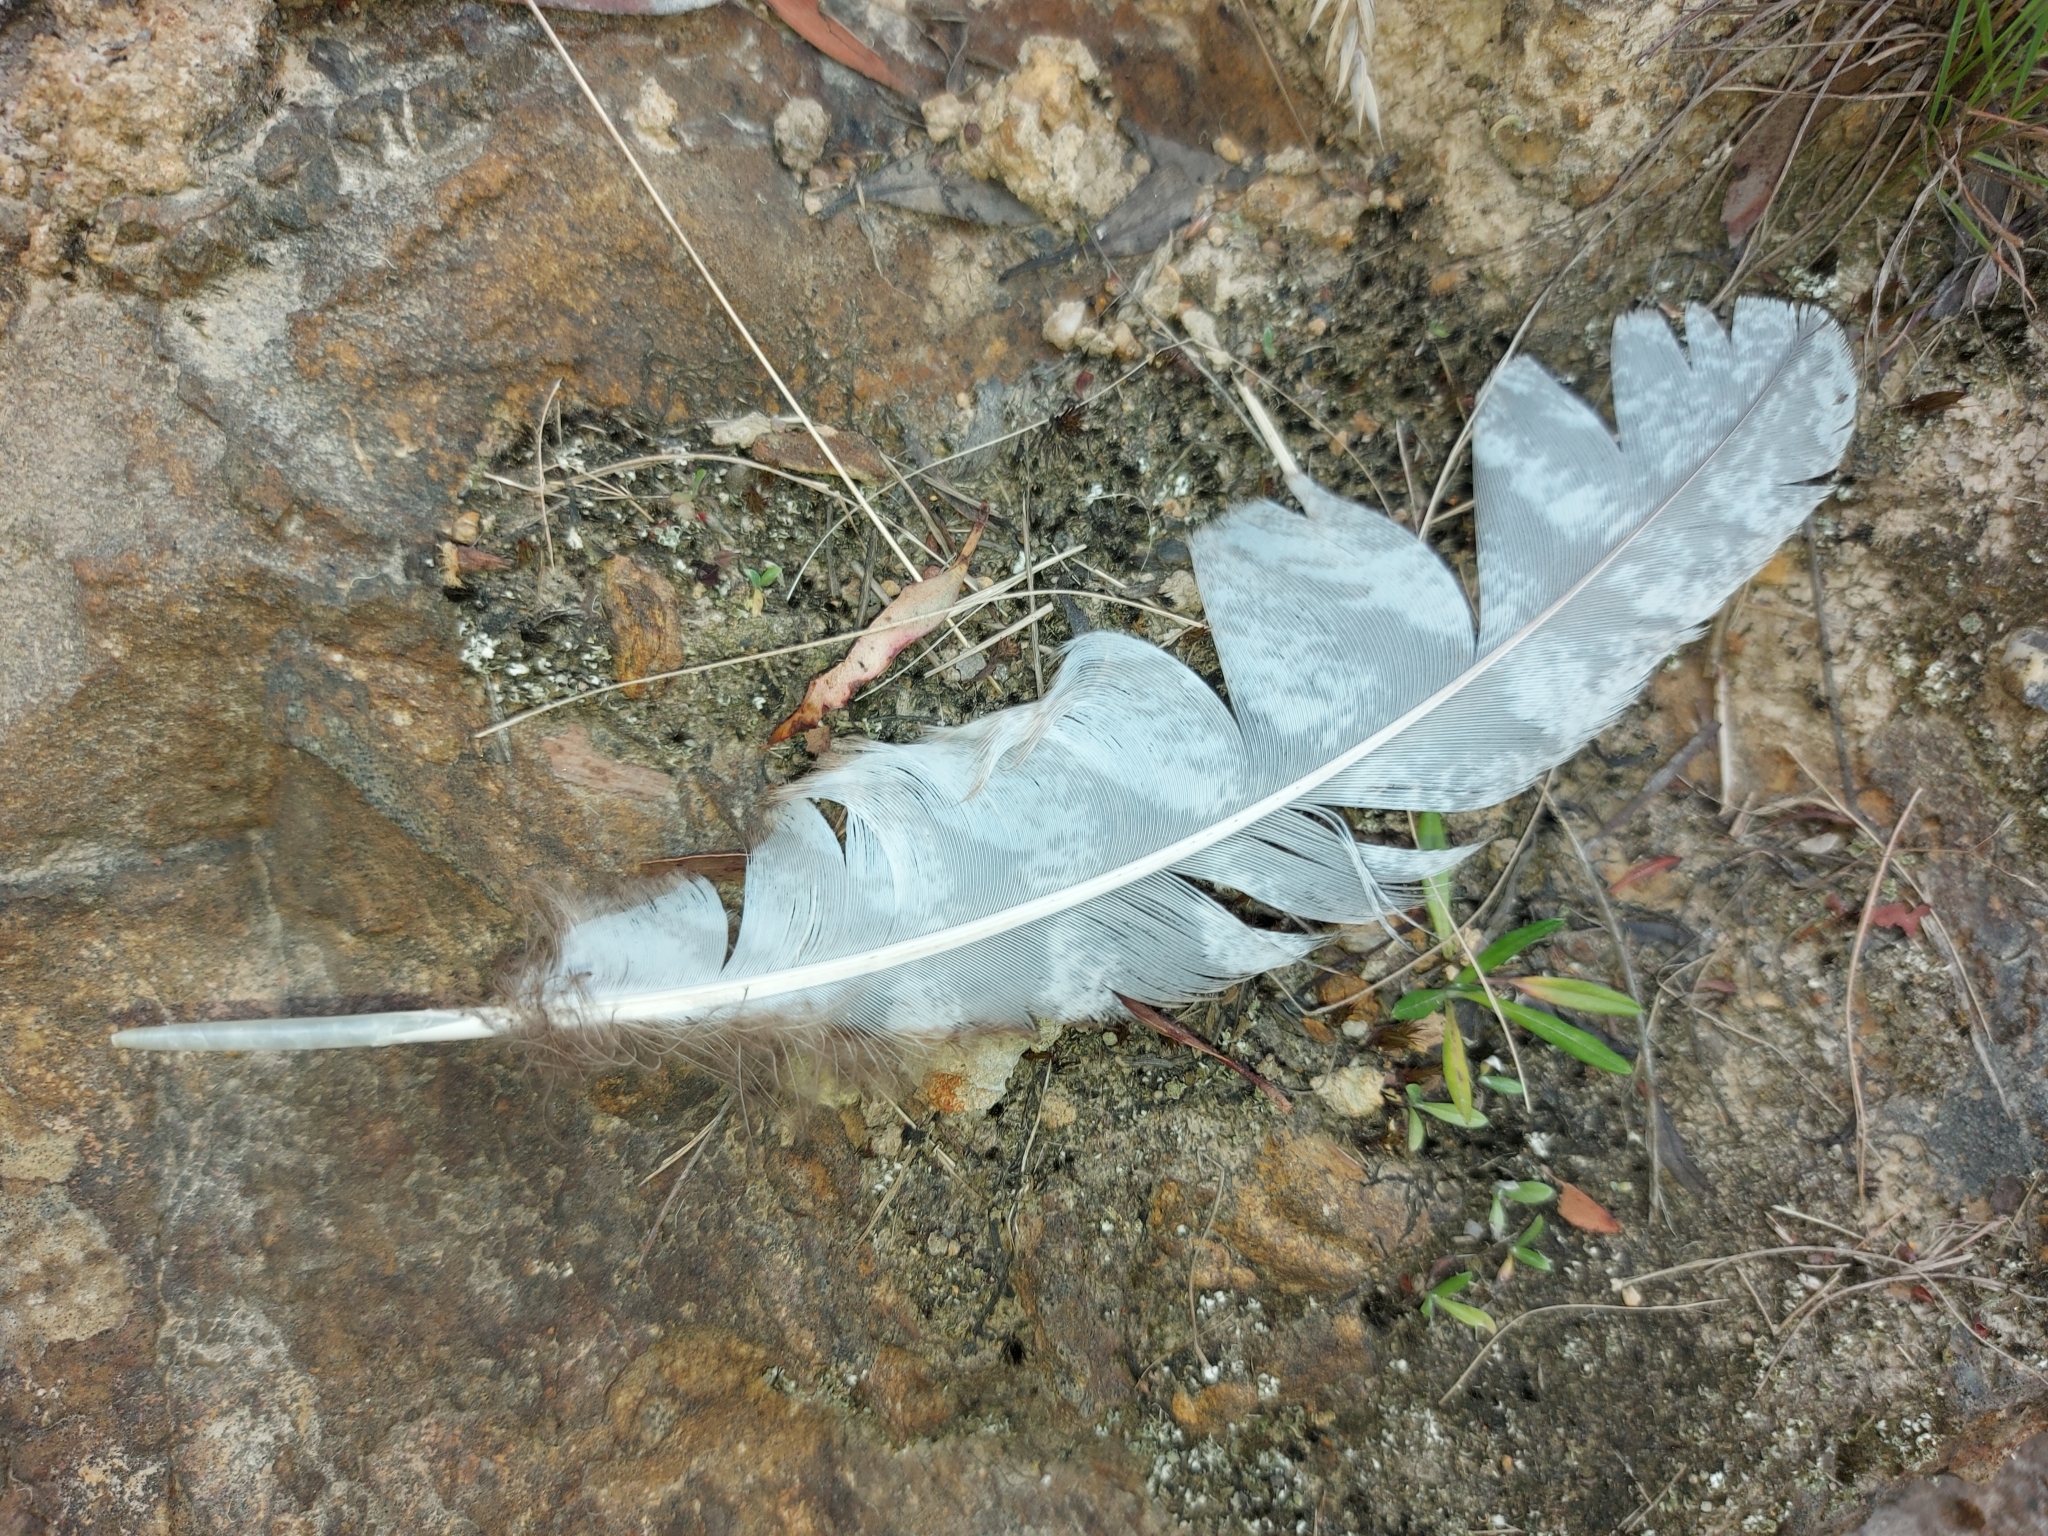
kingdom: Animalia
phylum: Chordata
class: Aves
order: Caprimulgiformes
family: Podargidae
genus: Podargus
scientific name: Podargus strigoides
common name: Tawny frogmouth
